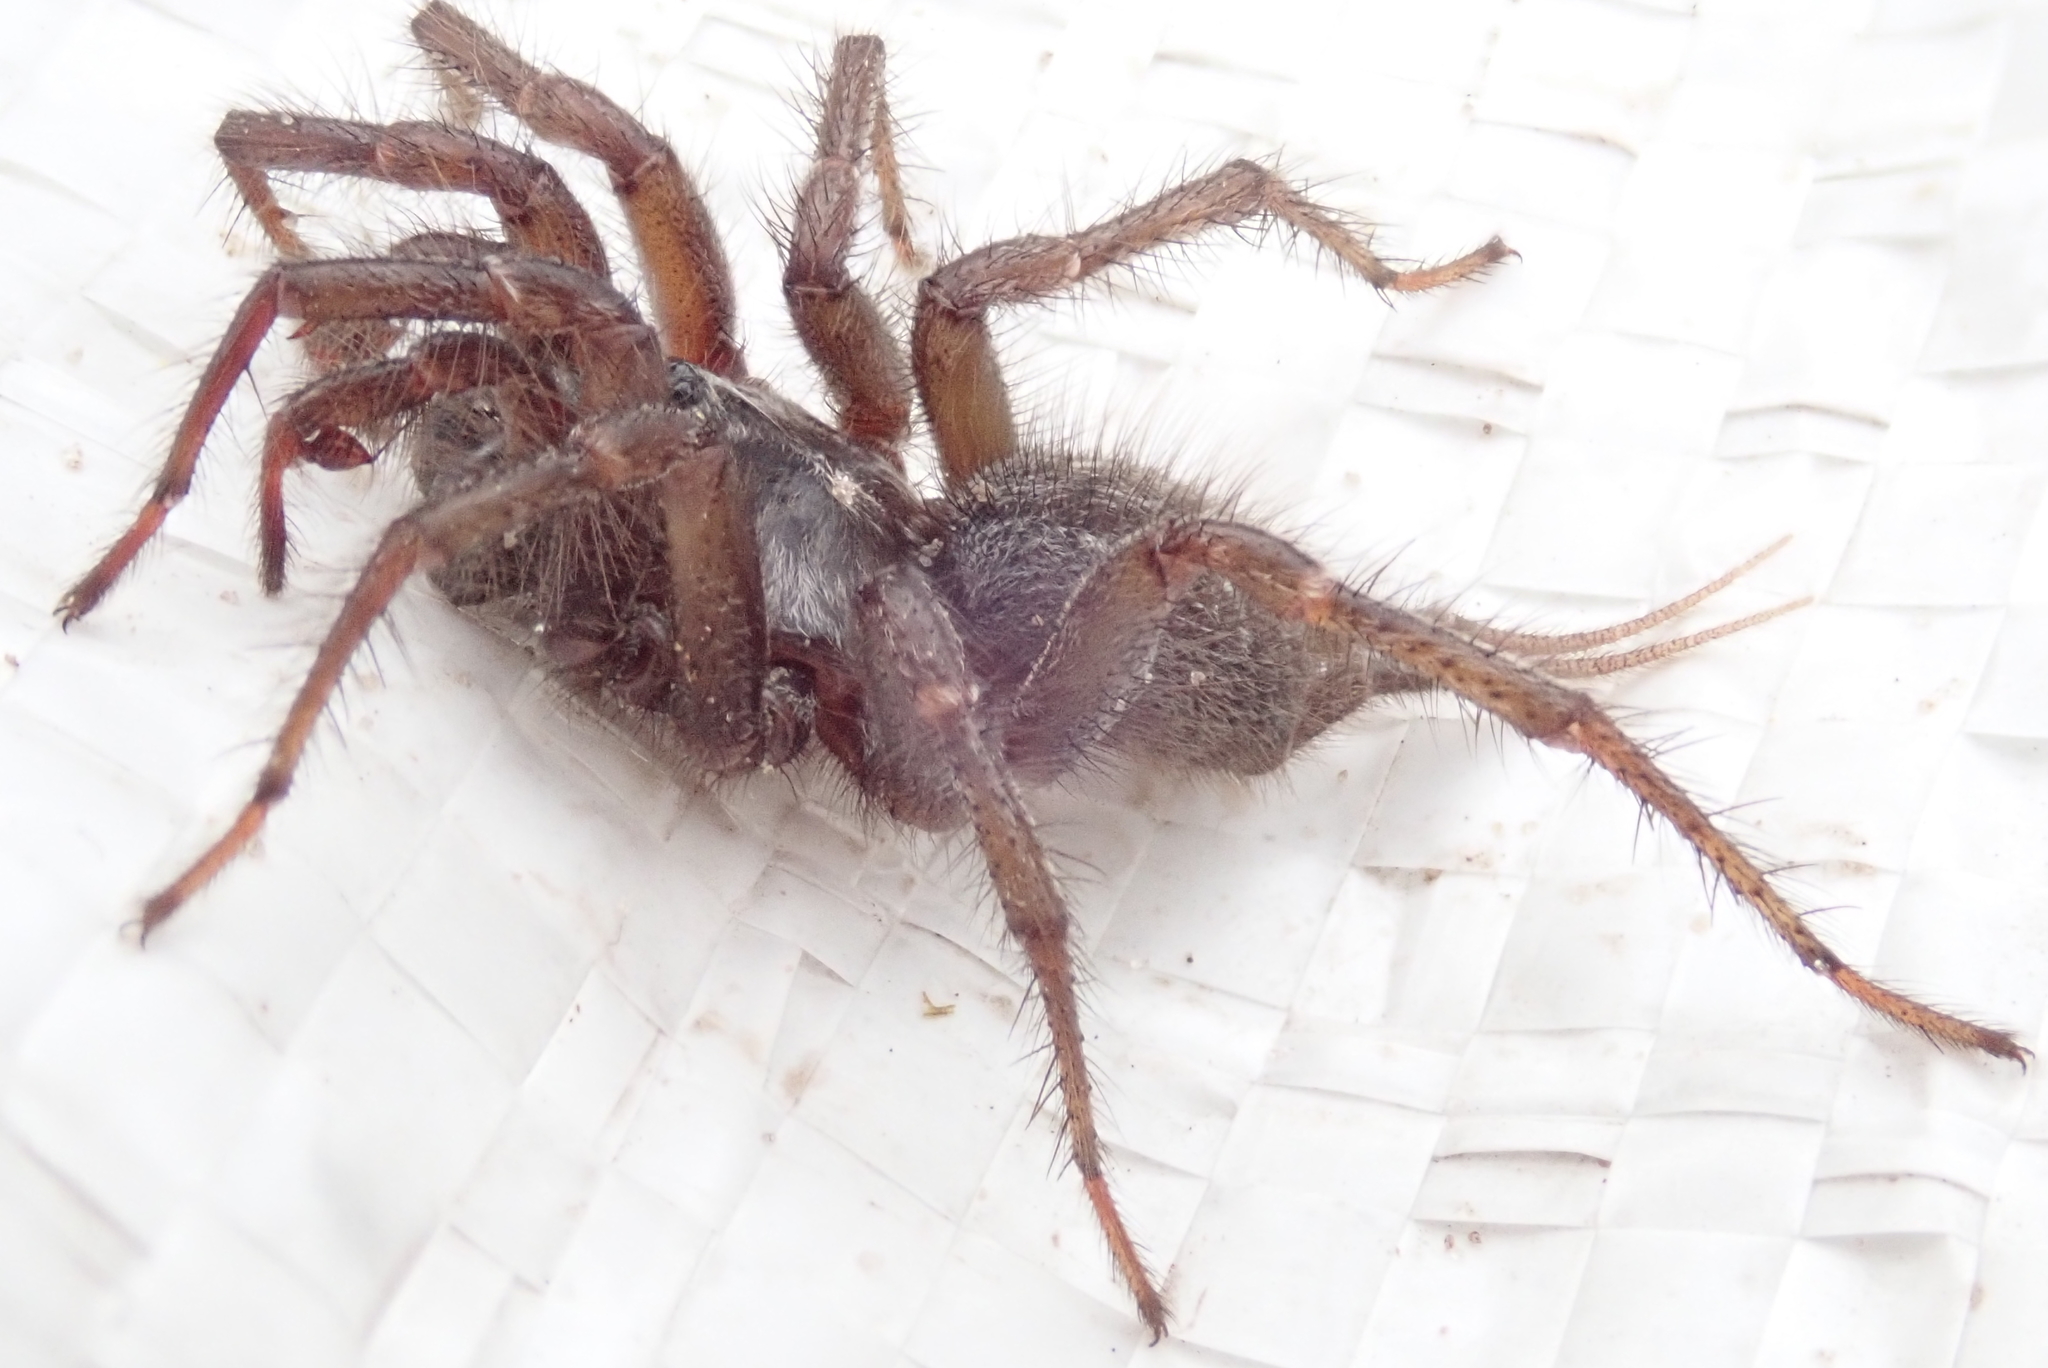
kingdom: Animalia
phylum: Arthropoda
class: Arachnida
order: Araneae
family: Ischnothelidae
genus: Thelechoris
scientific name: Thelechoris striatipes
